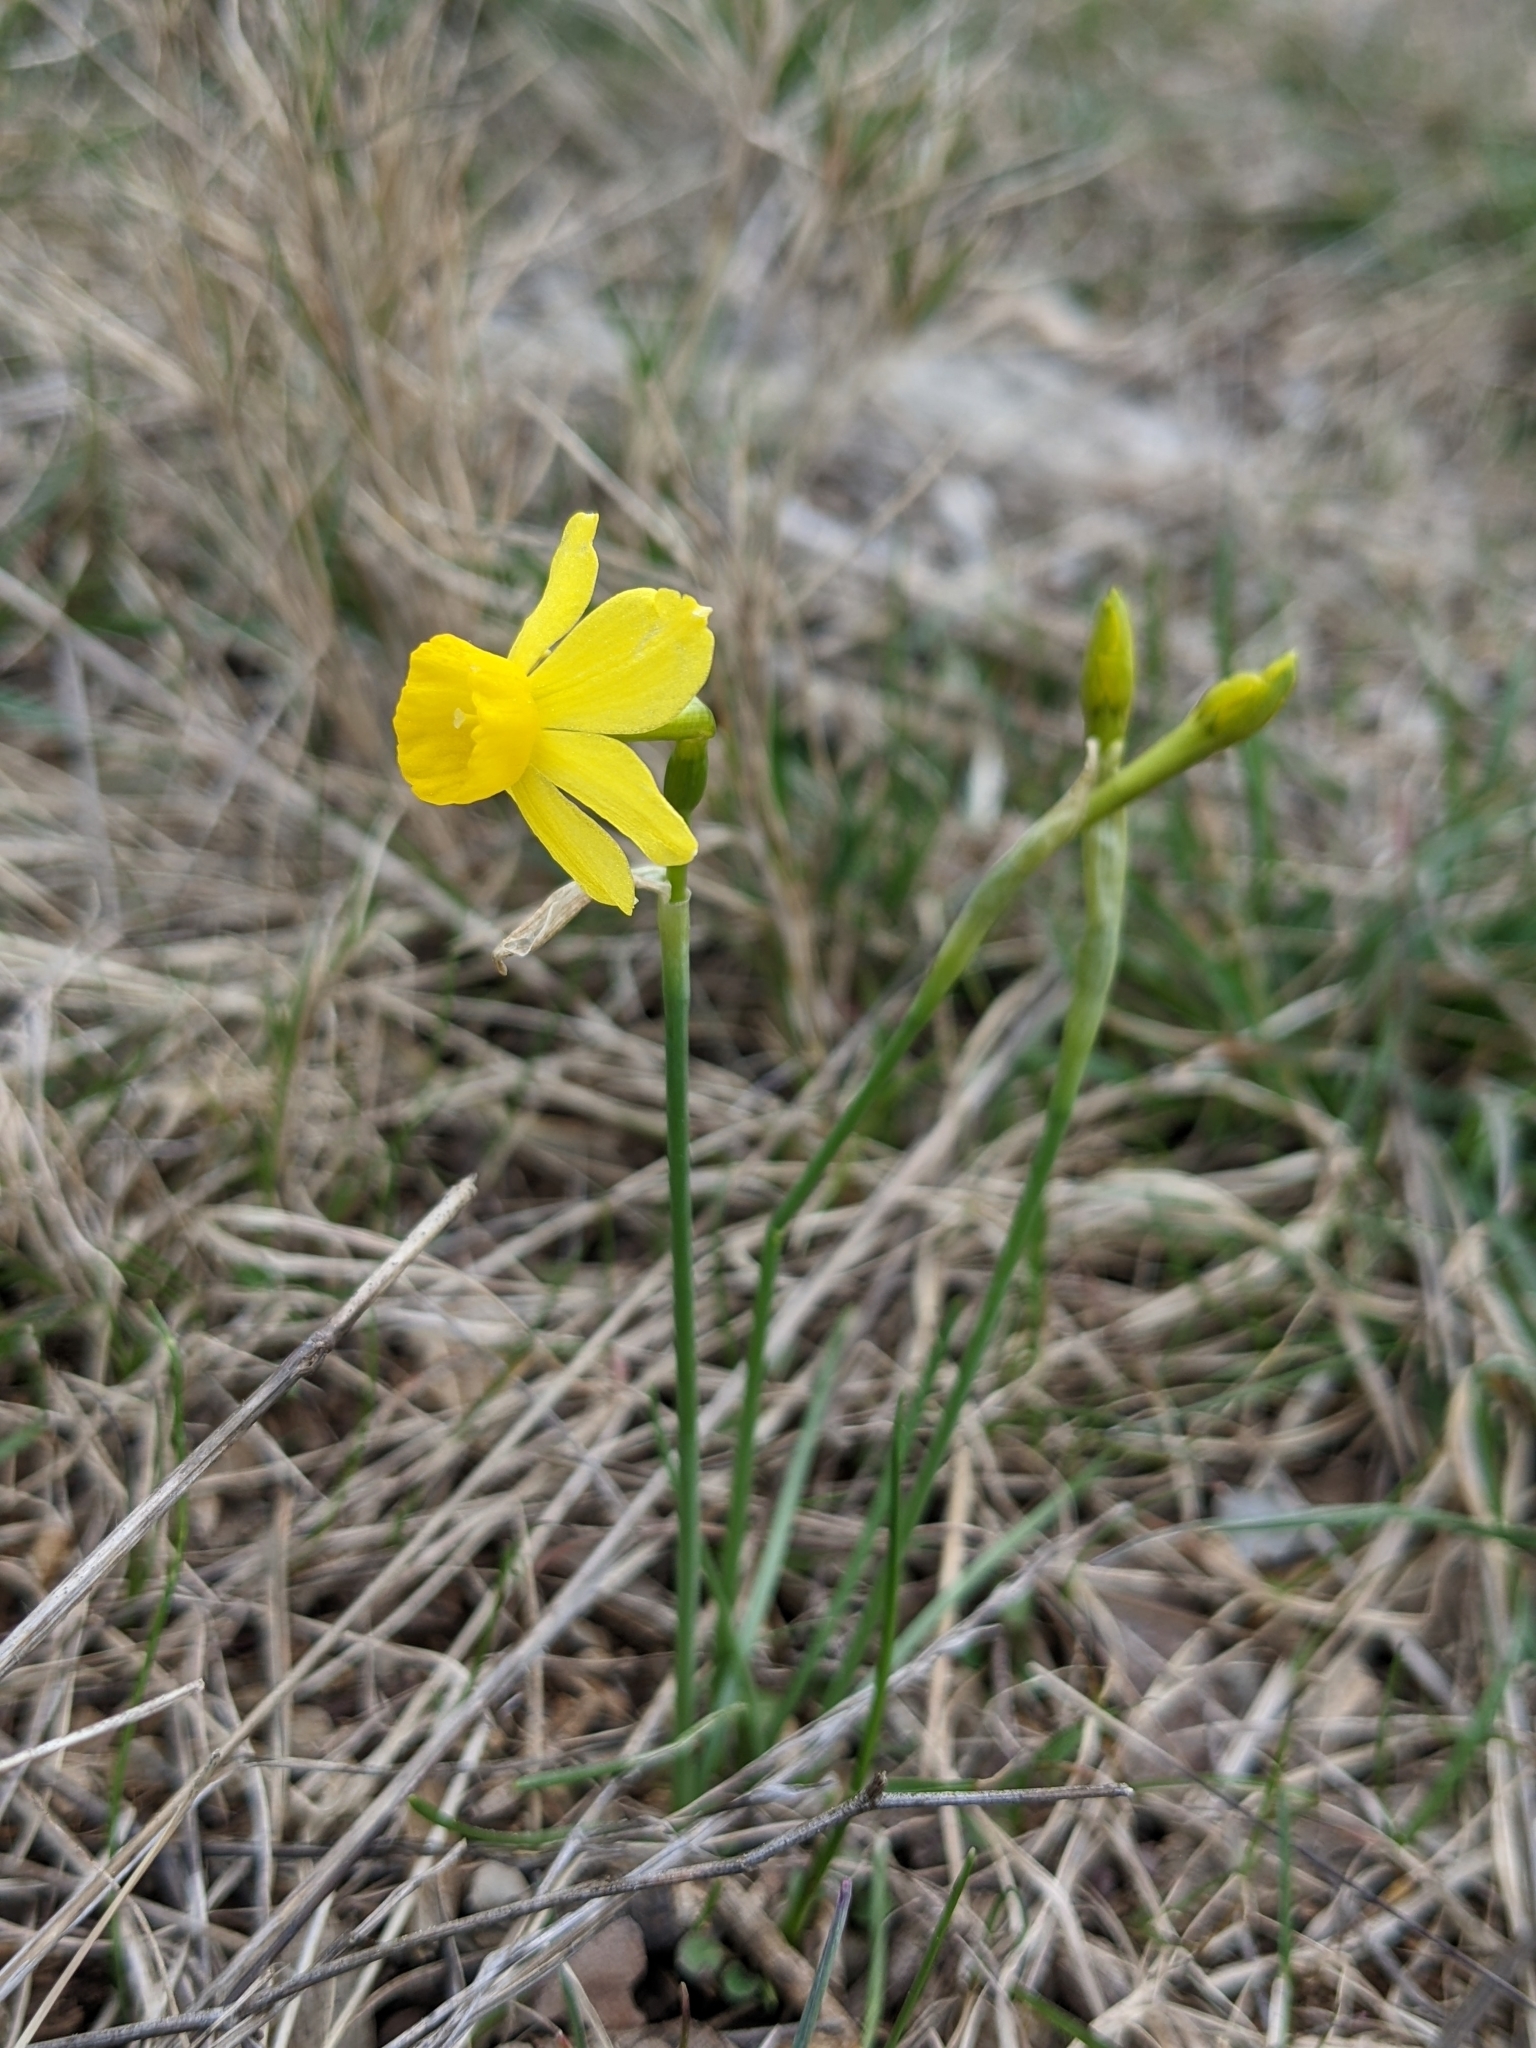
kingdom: Plantae
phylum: Tracheophyta
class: Liliopsida
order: Asparagales
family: Amaryllidaceae
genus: Narcissus
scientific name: Narcissus assoanus
